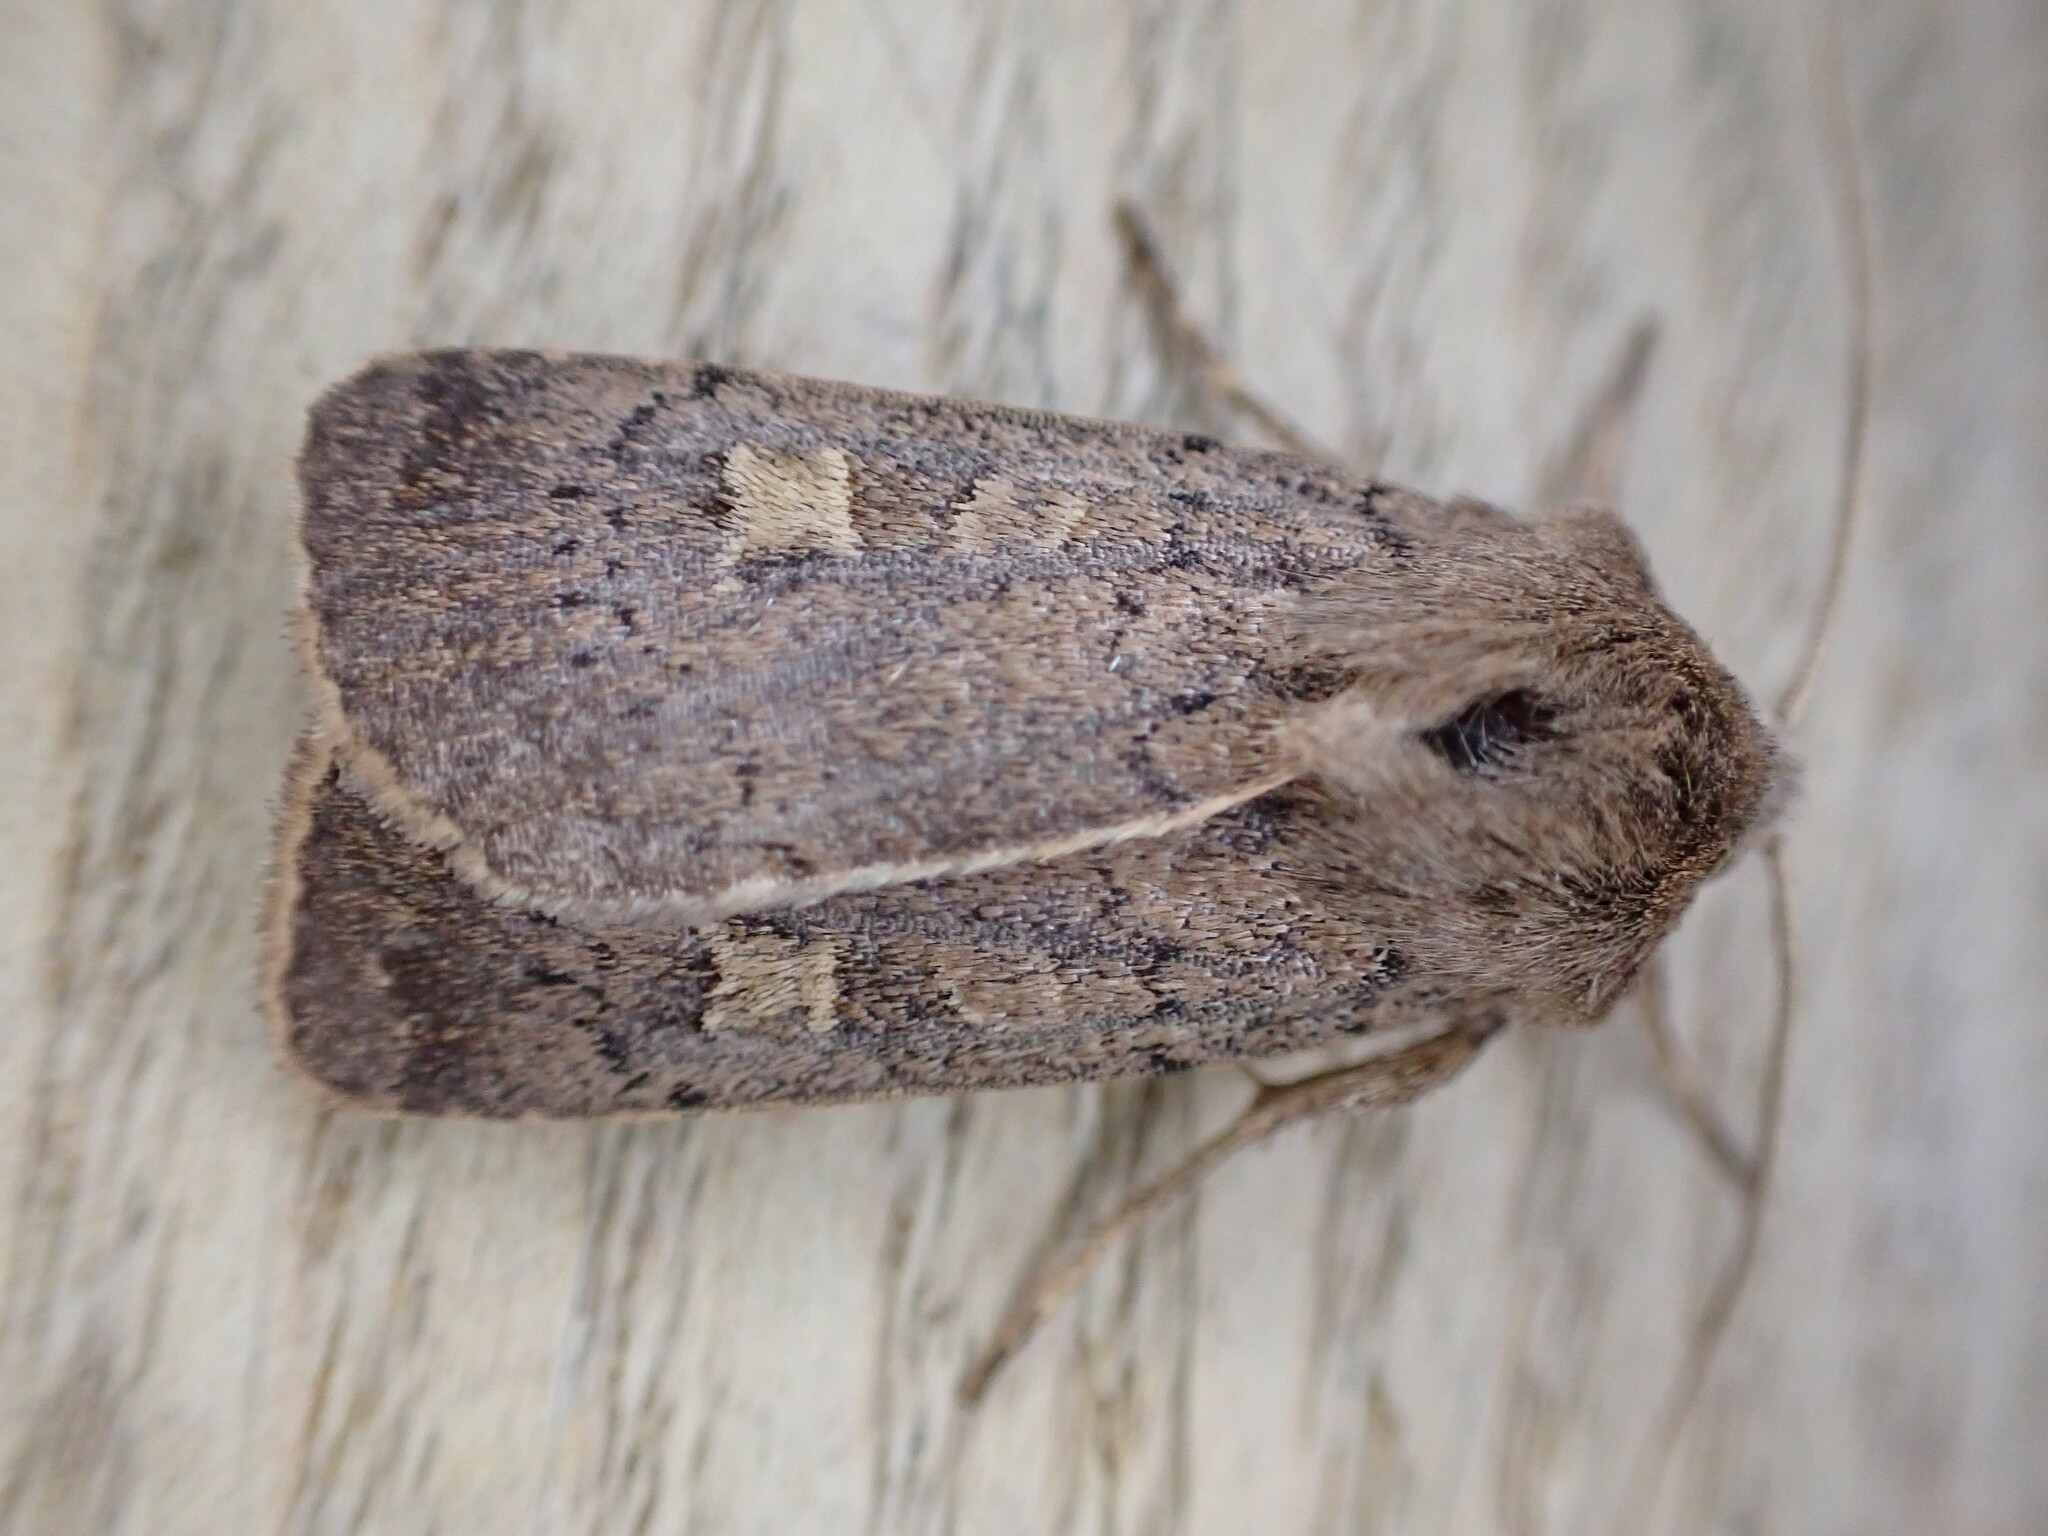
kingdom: Animalia
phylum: Arthropoda
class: Insecta
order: Lepidoptera
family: Noctuidae
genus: Xestia
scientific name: Xestia xanthographa
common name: Square-spot rustic
